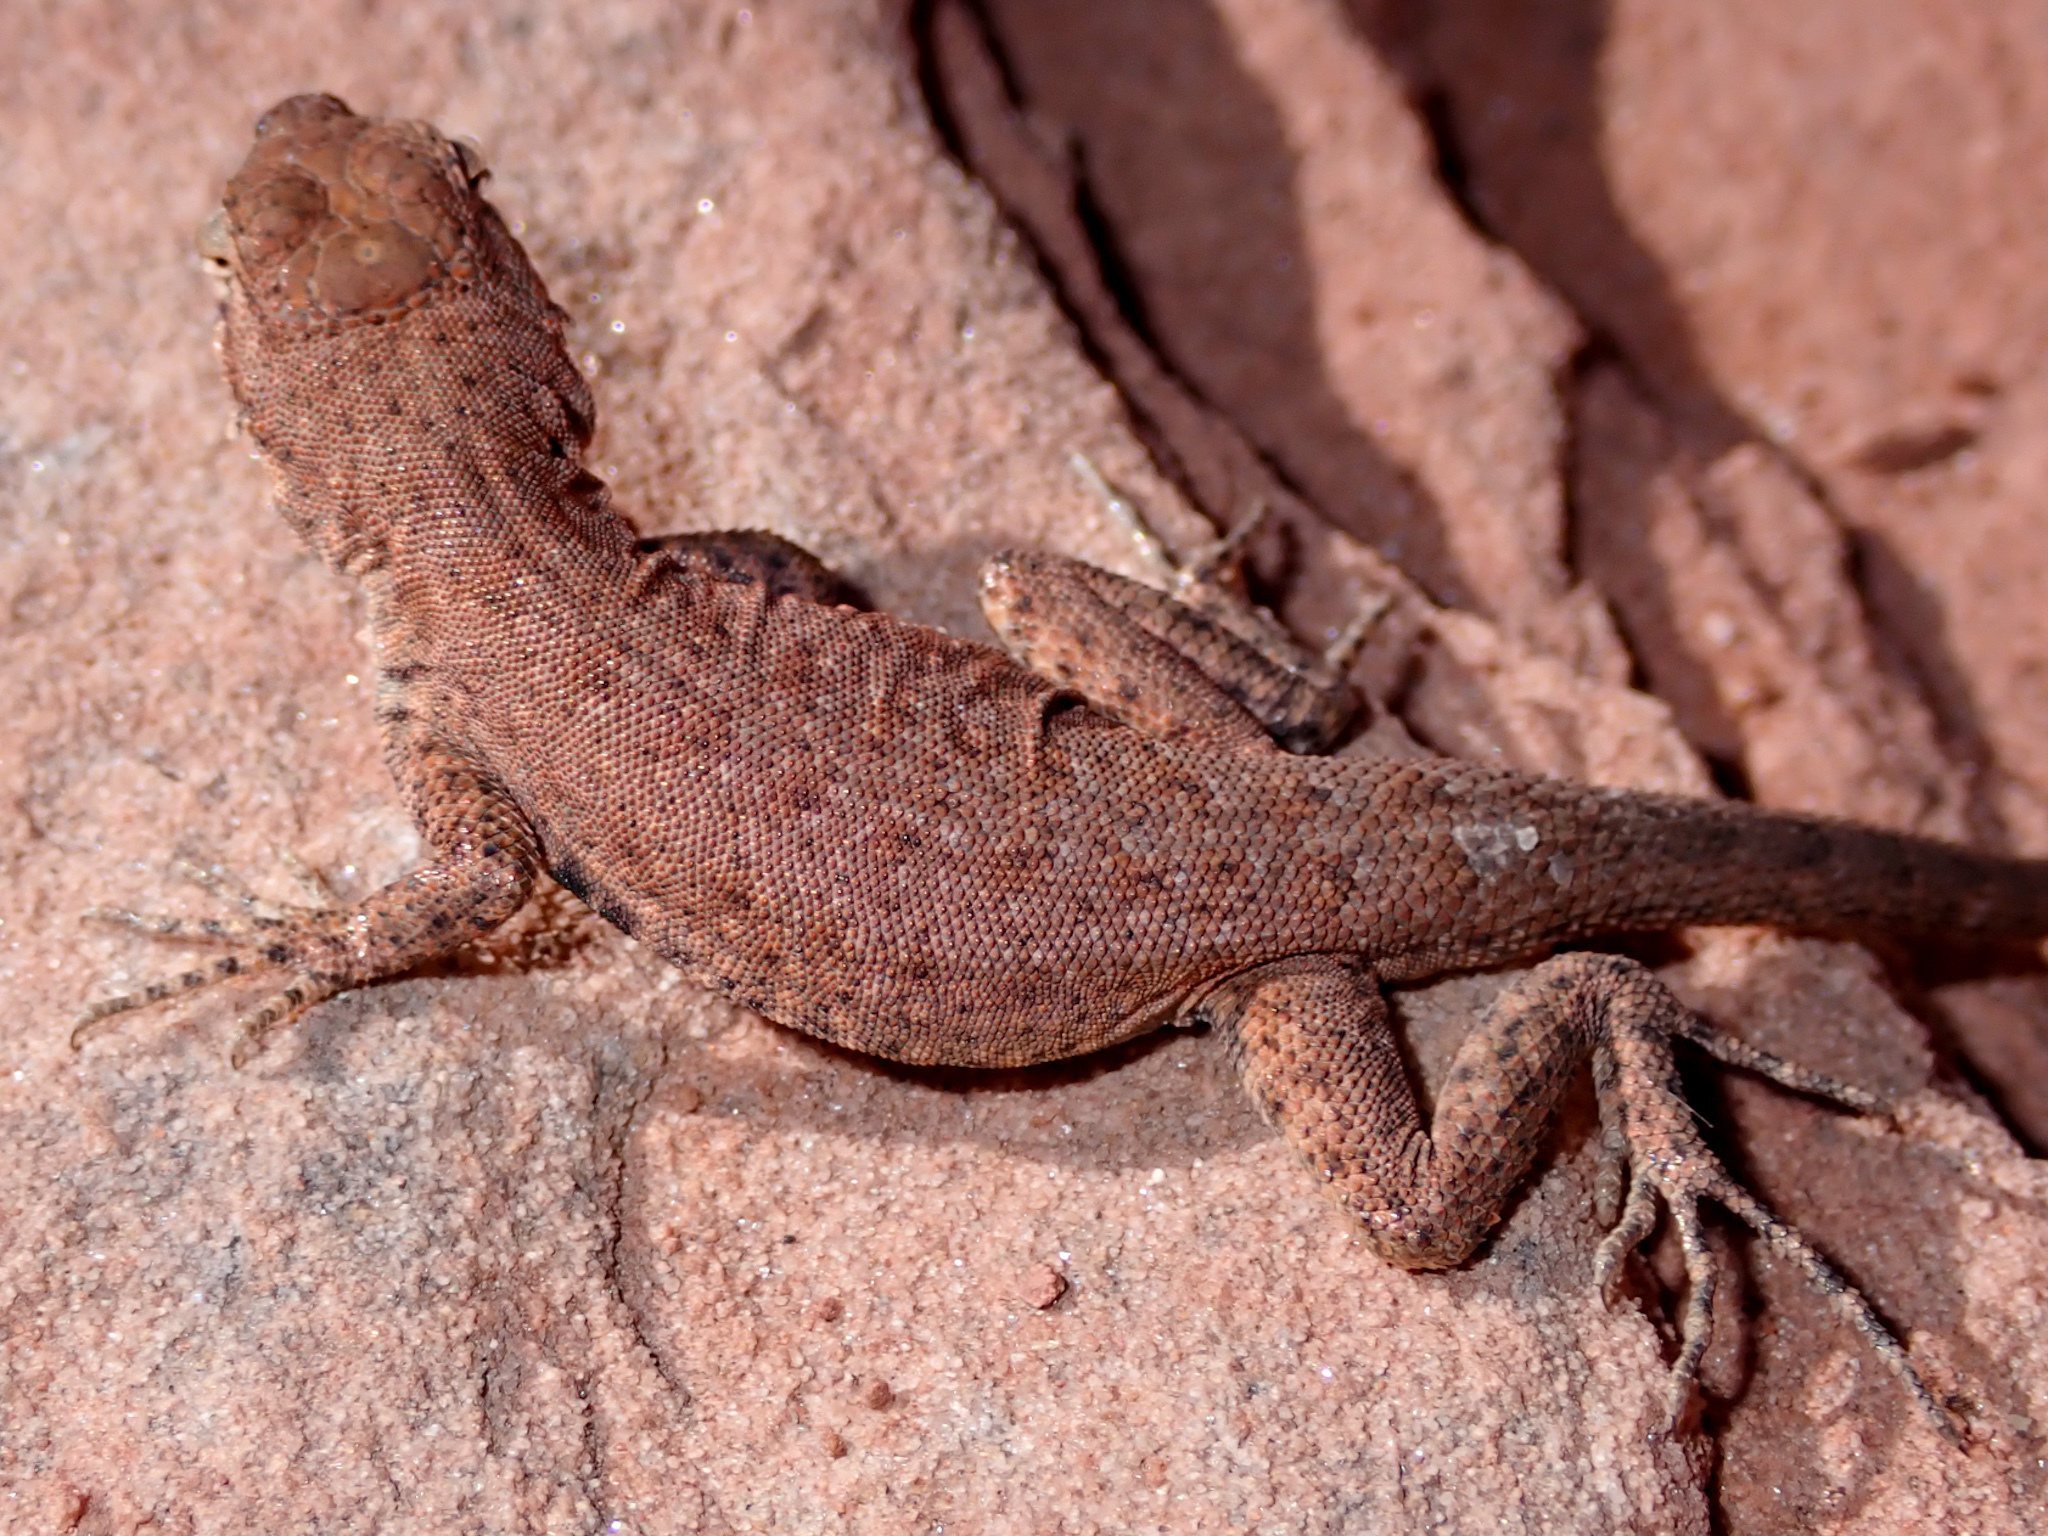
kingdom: Animalia
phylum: Chordata
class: Squamata
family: Phrynosomatidae
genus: Uta
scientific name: Uta stansburiana
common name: Side-blotched lizard
